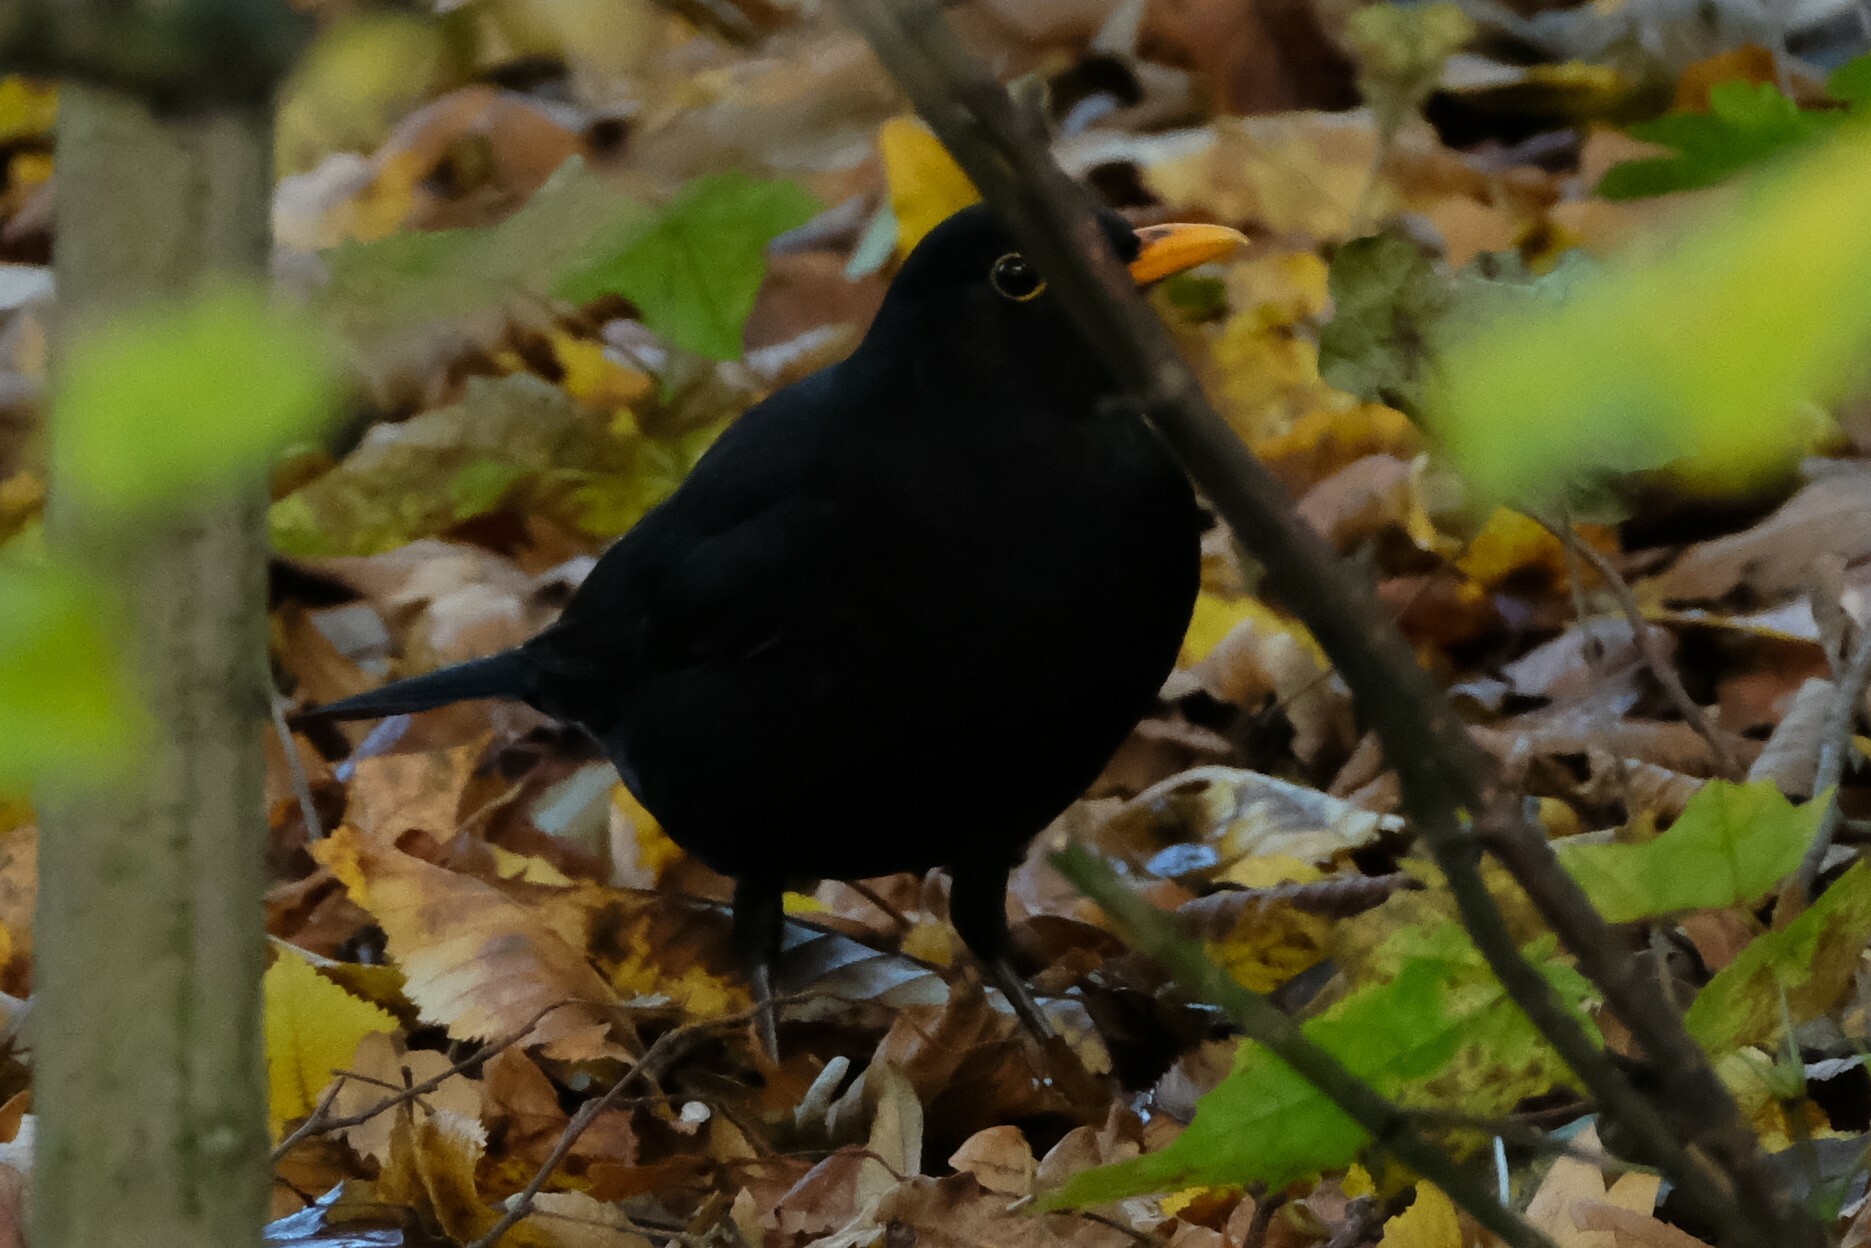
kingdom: Animalia
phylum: Chordata
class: Aves
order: Passeriformes
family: Turdidae
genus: Turdus
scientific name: Turdus merula
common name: Common blackbird
